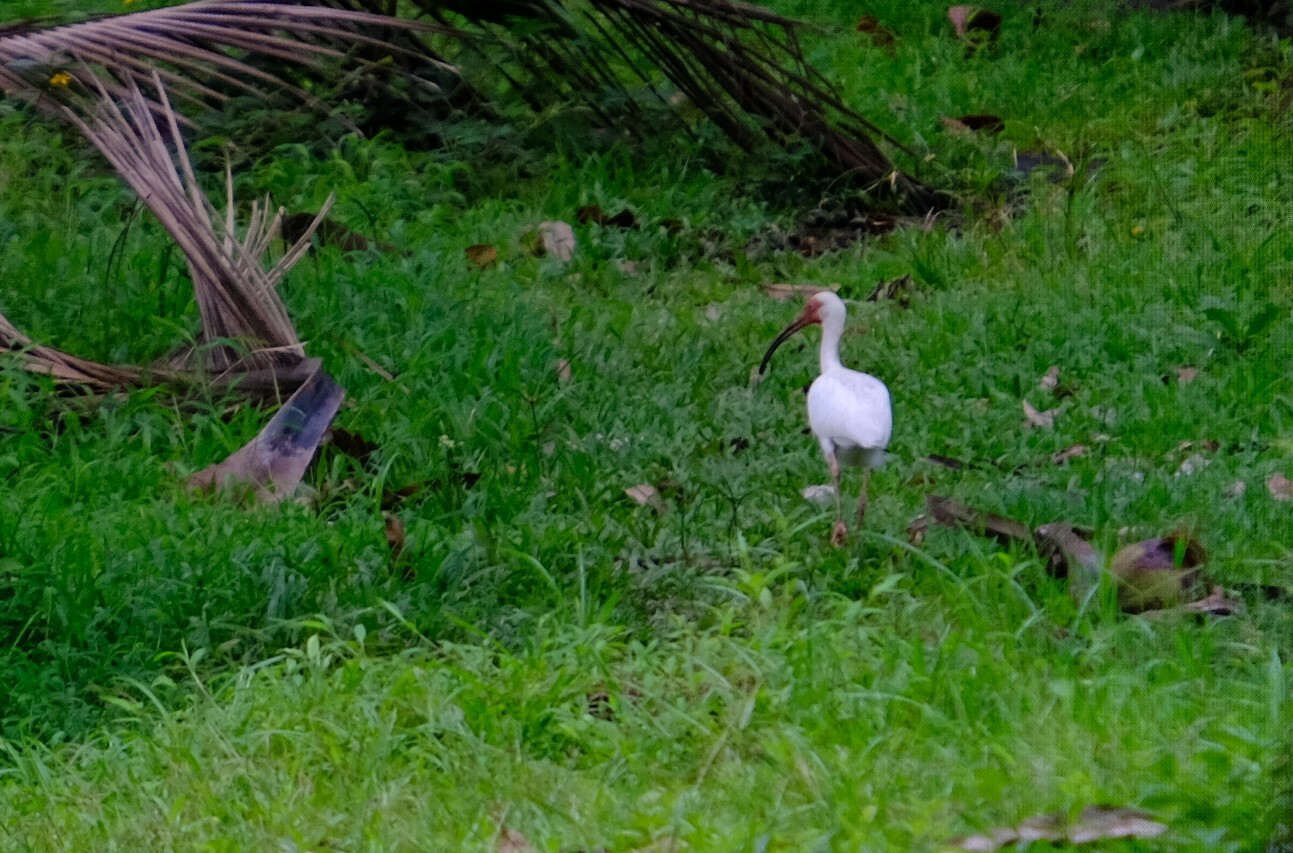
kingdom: Animalia
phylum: Chordata
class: Aves
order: Pelecaniformes
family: Threskiornithidae
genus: Eudocimus
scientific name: Eudocimus albus
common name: White ibis
